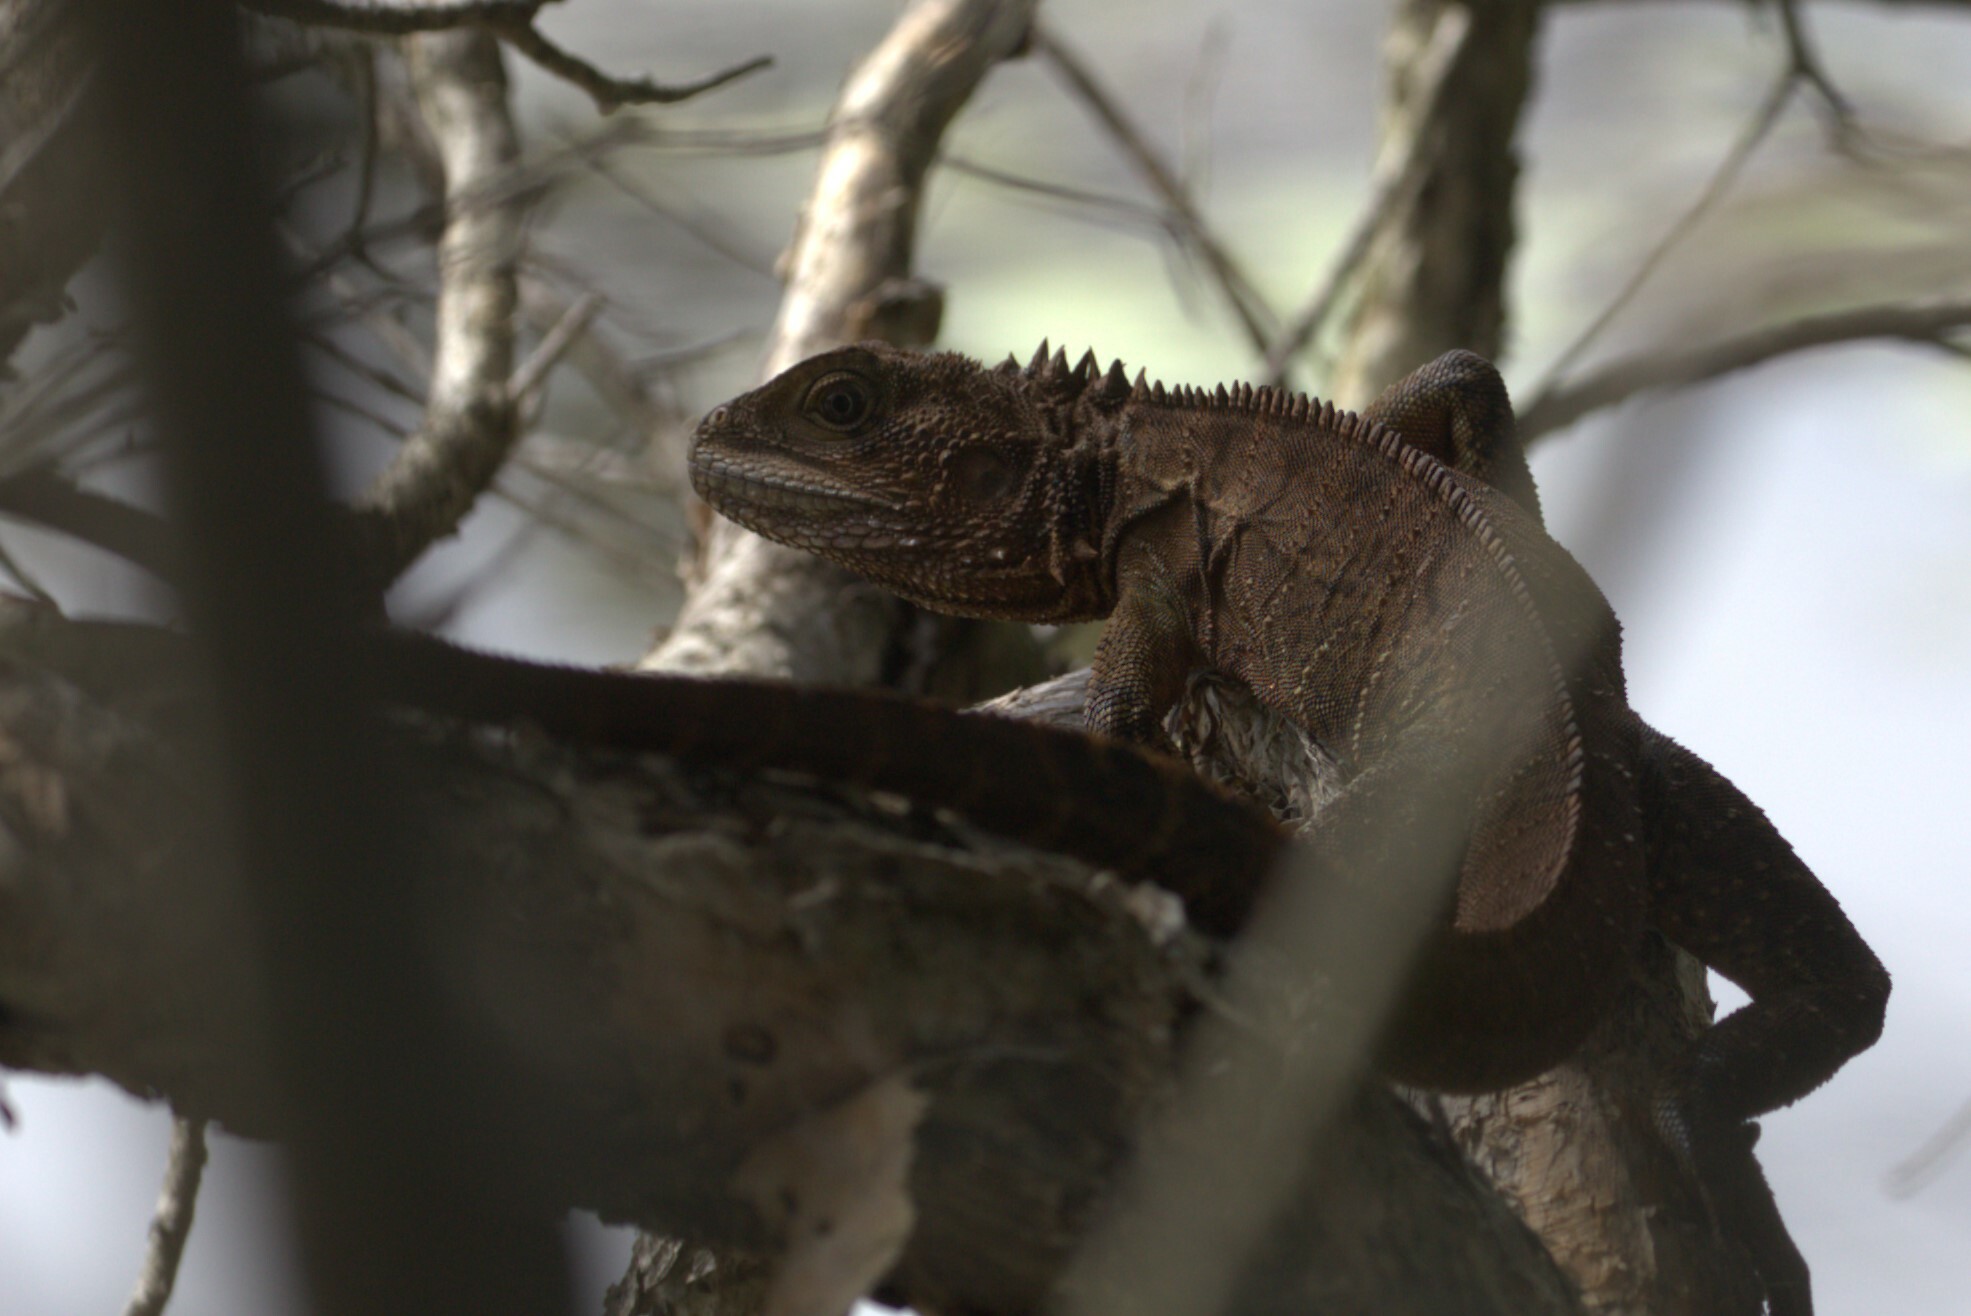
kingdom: Animalia
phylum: Chordata
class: Squamata
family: Agamidae
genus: Intellagama
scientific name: Intellagama lesueurii
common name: Eastern water dragon
